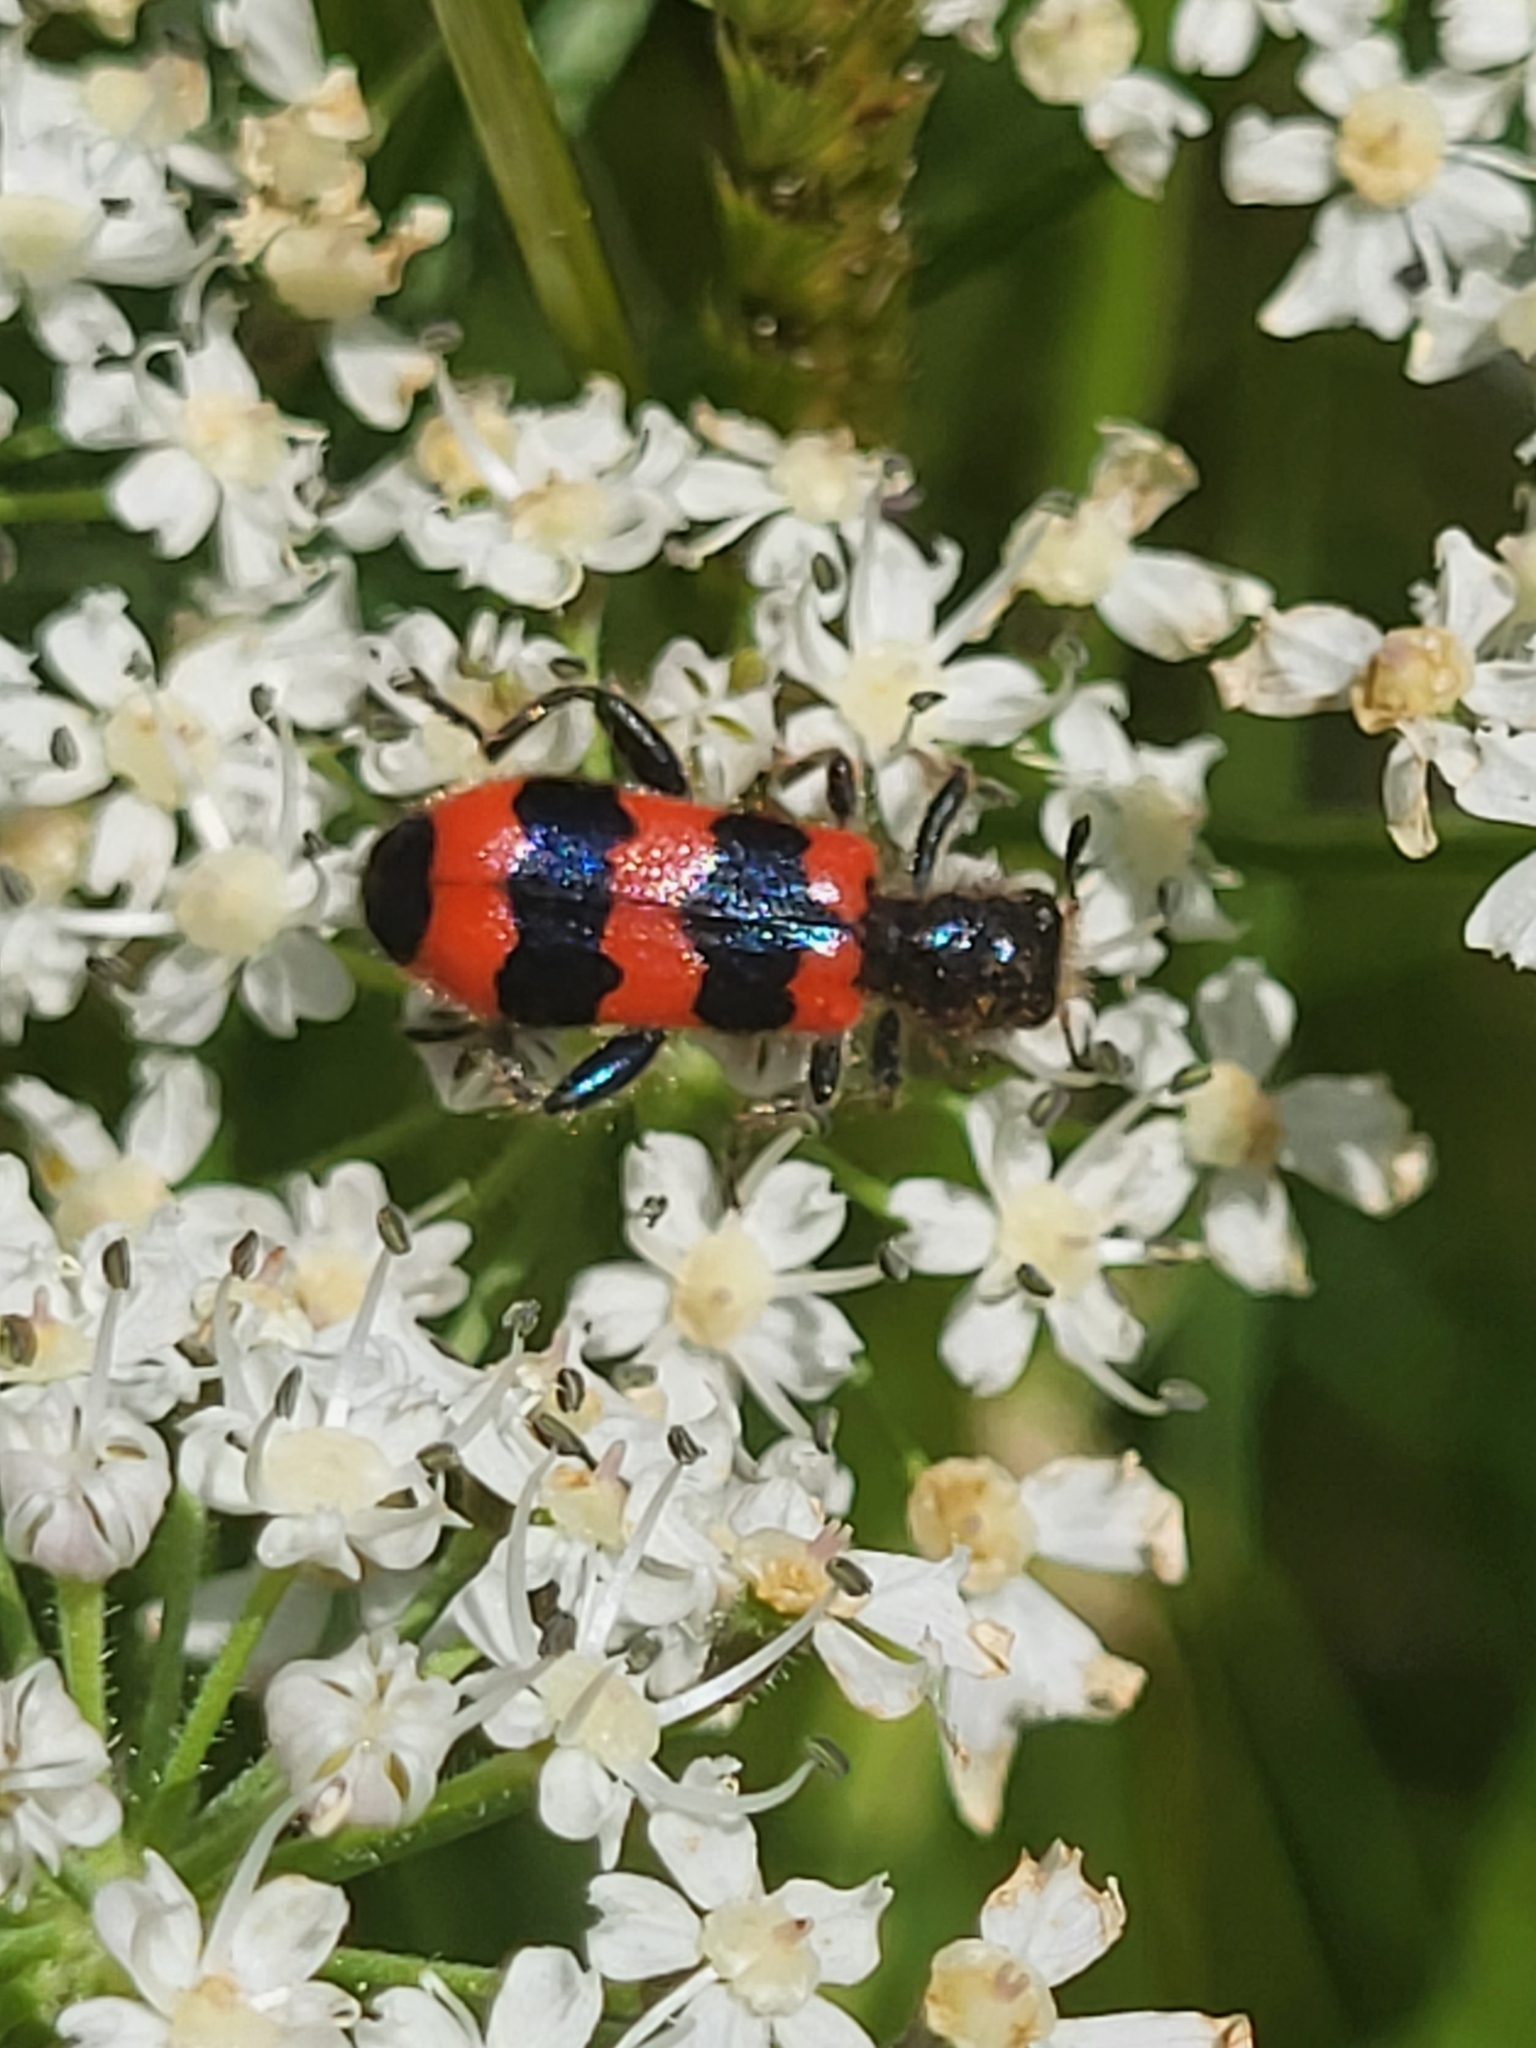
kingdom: Animalia
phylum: Arthropoda
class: Insecta
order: Coleoptera
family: Cleridae
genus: Trichodes
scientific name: Trichodes apiarius
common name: Bee-eating beetle
